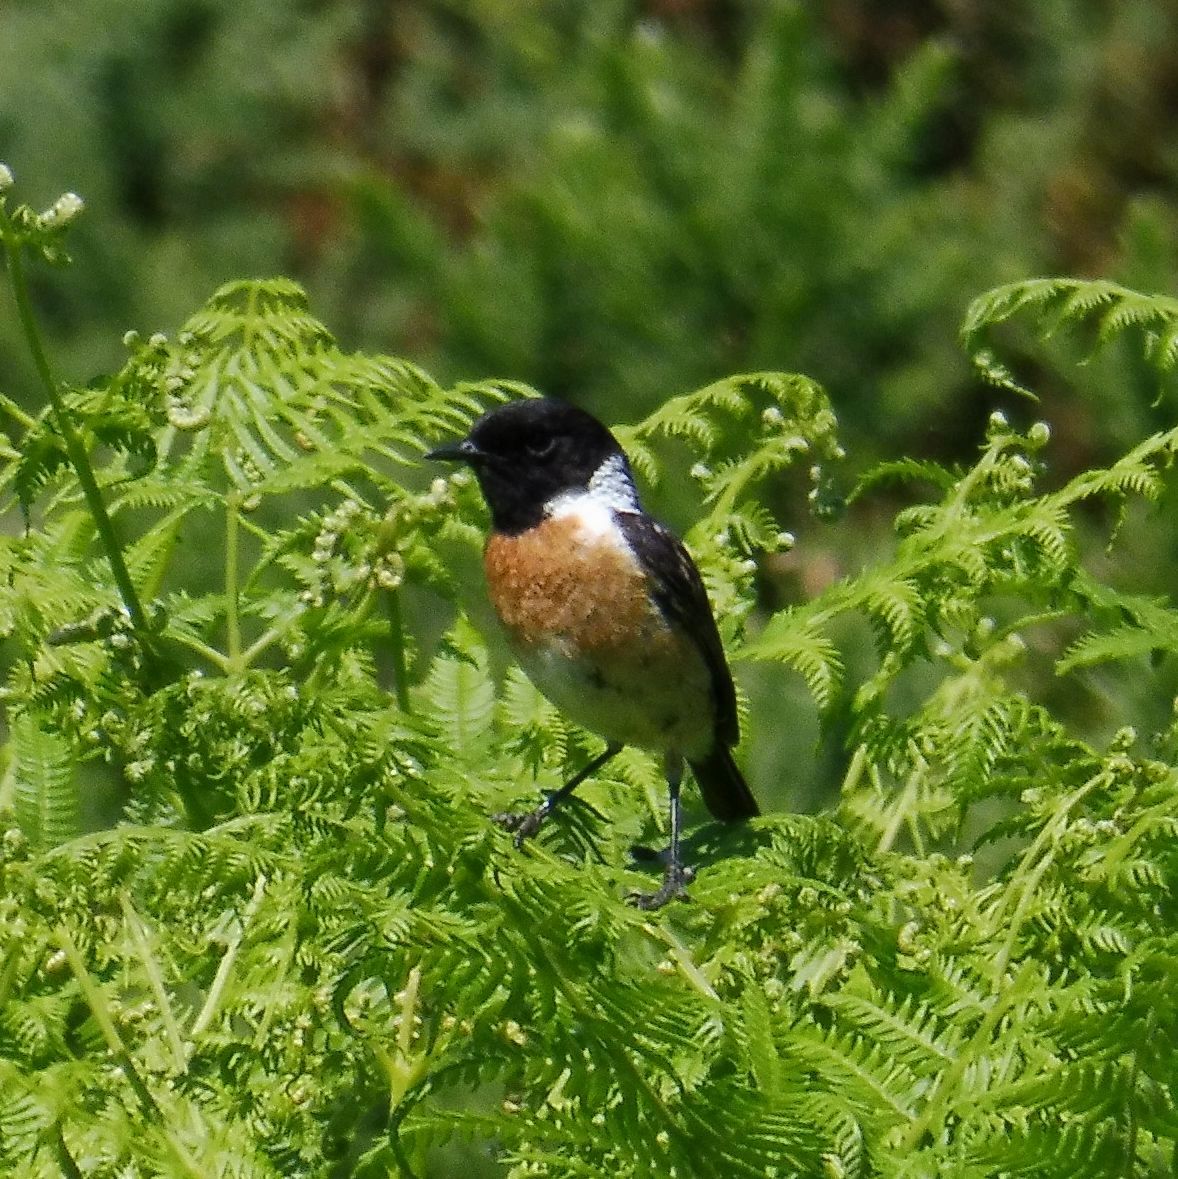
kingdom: Animalia
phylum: Chordata
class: Aves
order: Passeriformes
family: Muscicapidae
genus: Saxicola
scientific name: Saxicola rubicola
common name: European stonechat
